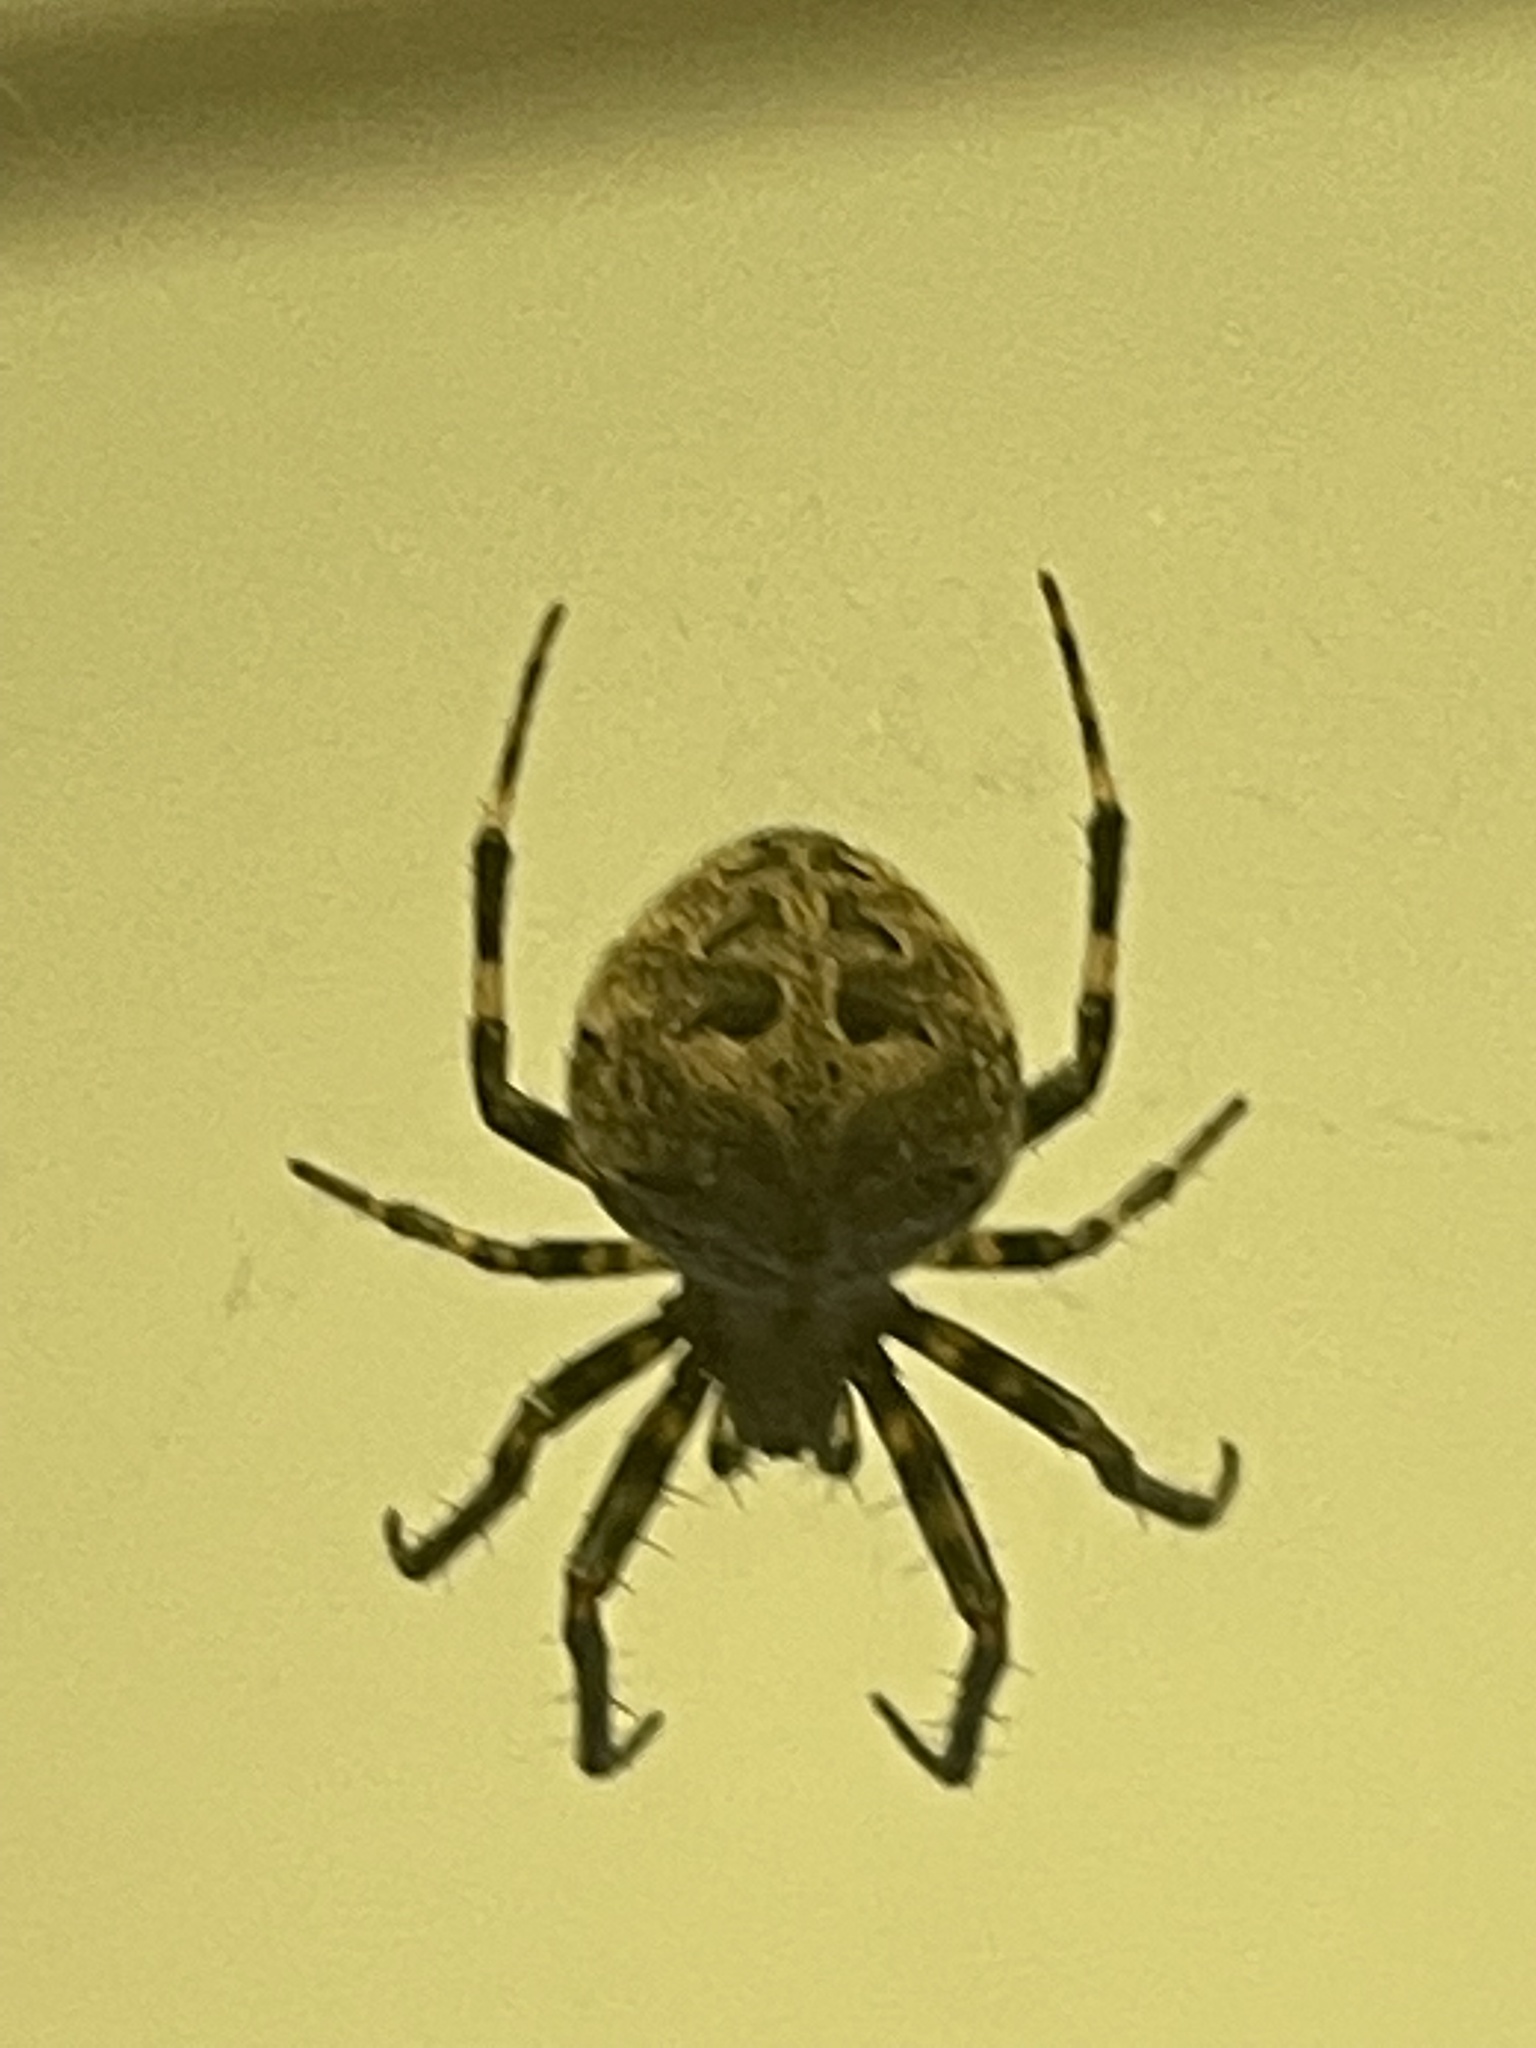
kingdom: Animalia
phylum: Arthropoda
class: Arachnida
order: Araneae
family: Araneidae
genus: Neoscona
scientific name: Neoscona nautica
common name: Orb weavers
